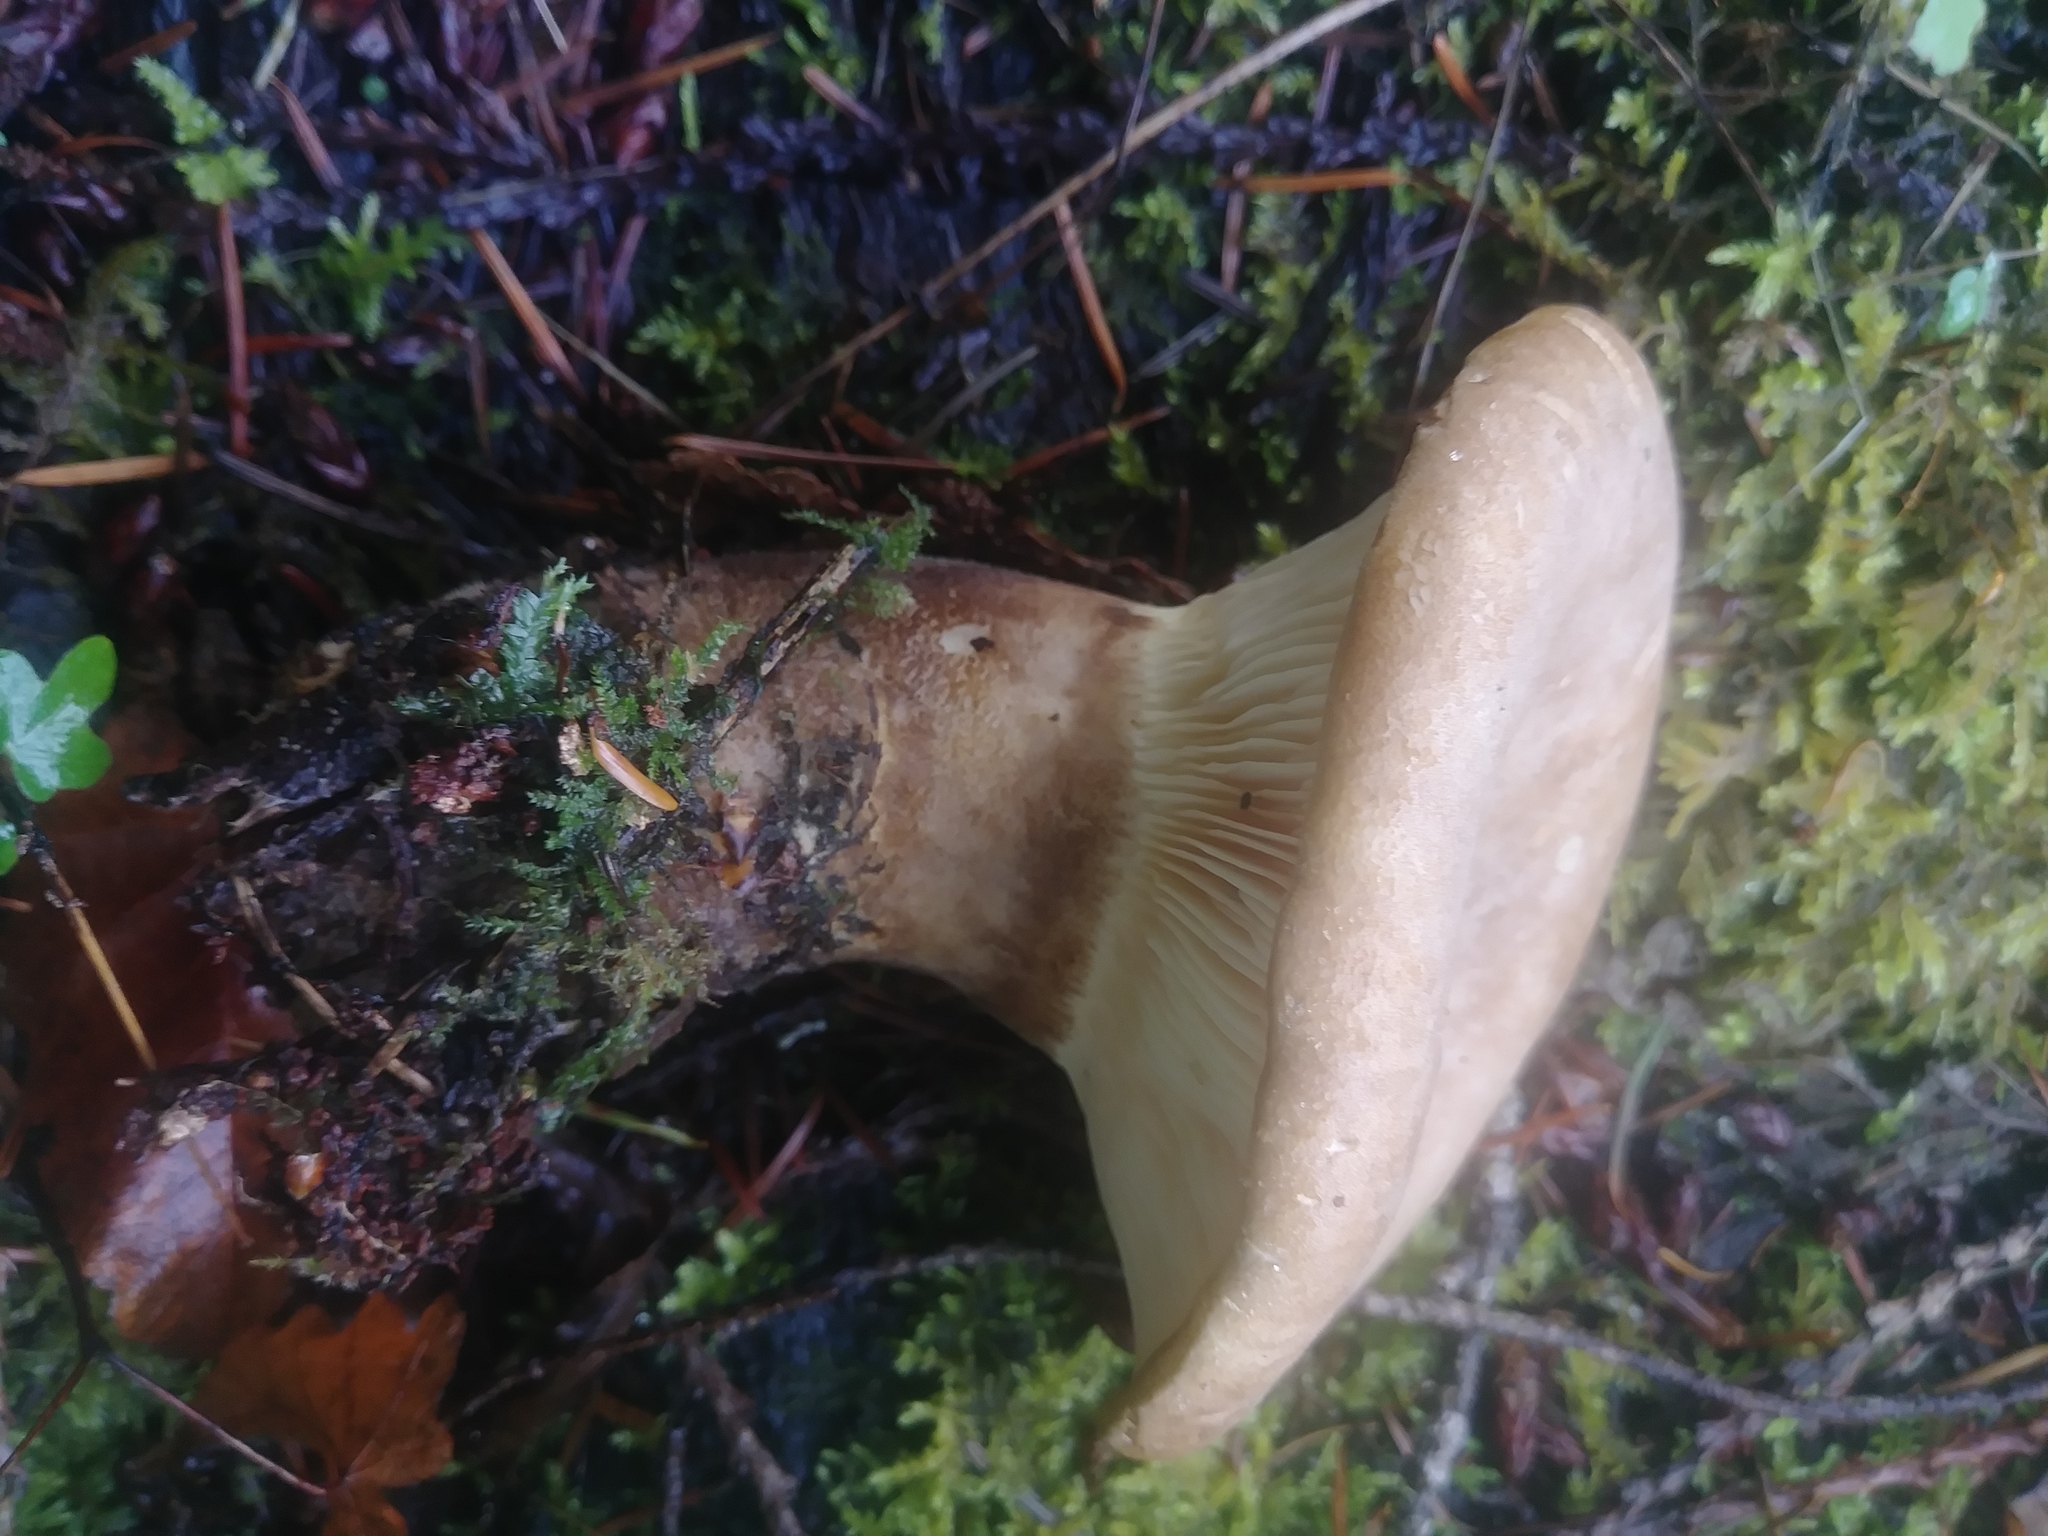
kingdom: Fungi
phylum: Basidiomycota
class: Agaricomycetes
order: Boletales
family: Tapinellaceae
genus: Tapinella
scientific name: Tapinella atrotomentosa
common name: Velvet rollrim
